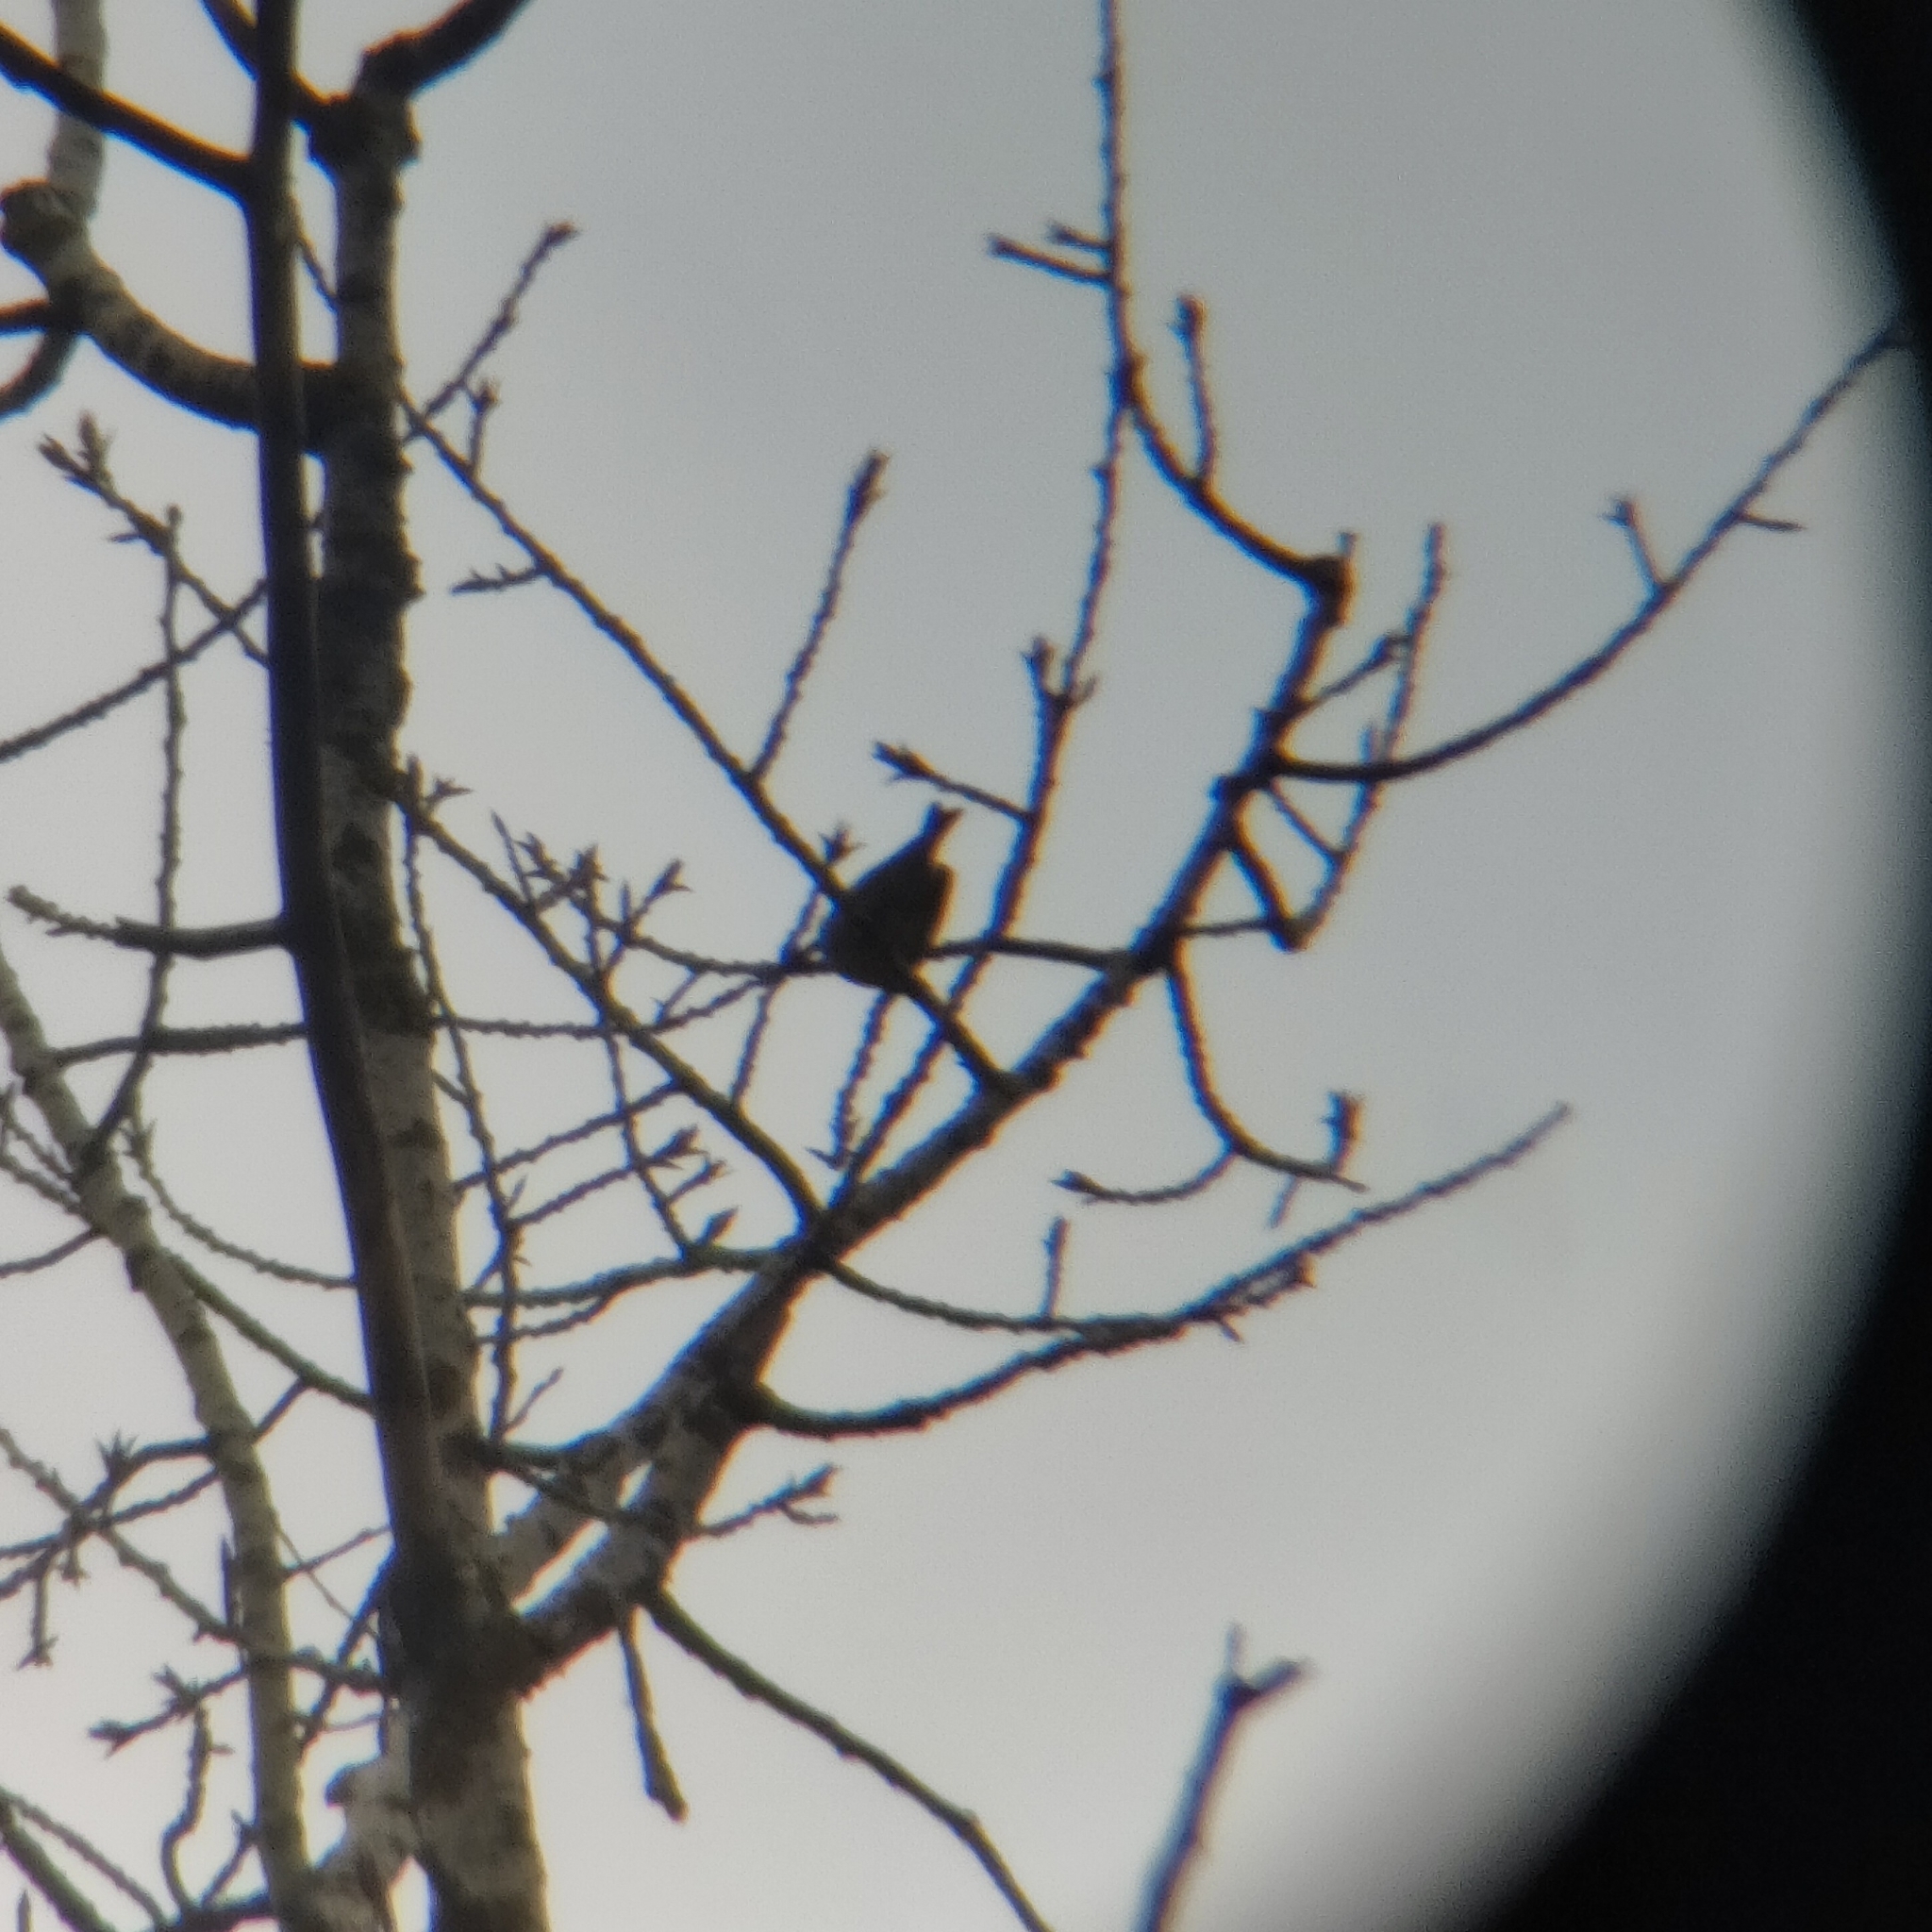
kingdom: Plantae
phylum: Tracheophyta
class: Liliopsida
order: Poales
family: Poaceae
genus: Chloris
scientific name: Chloris chloris
